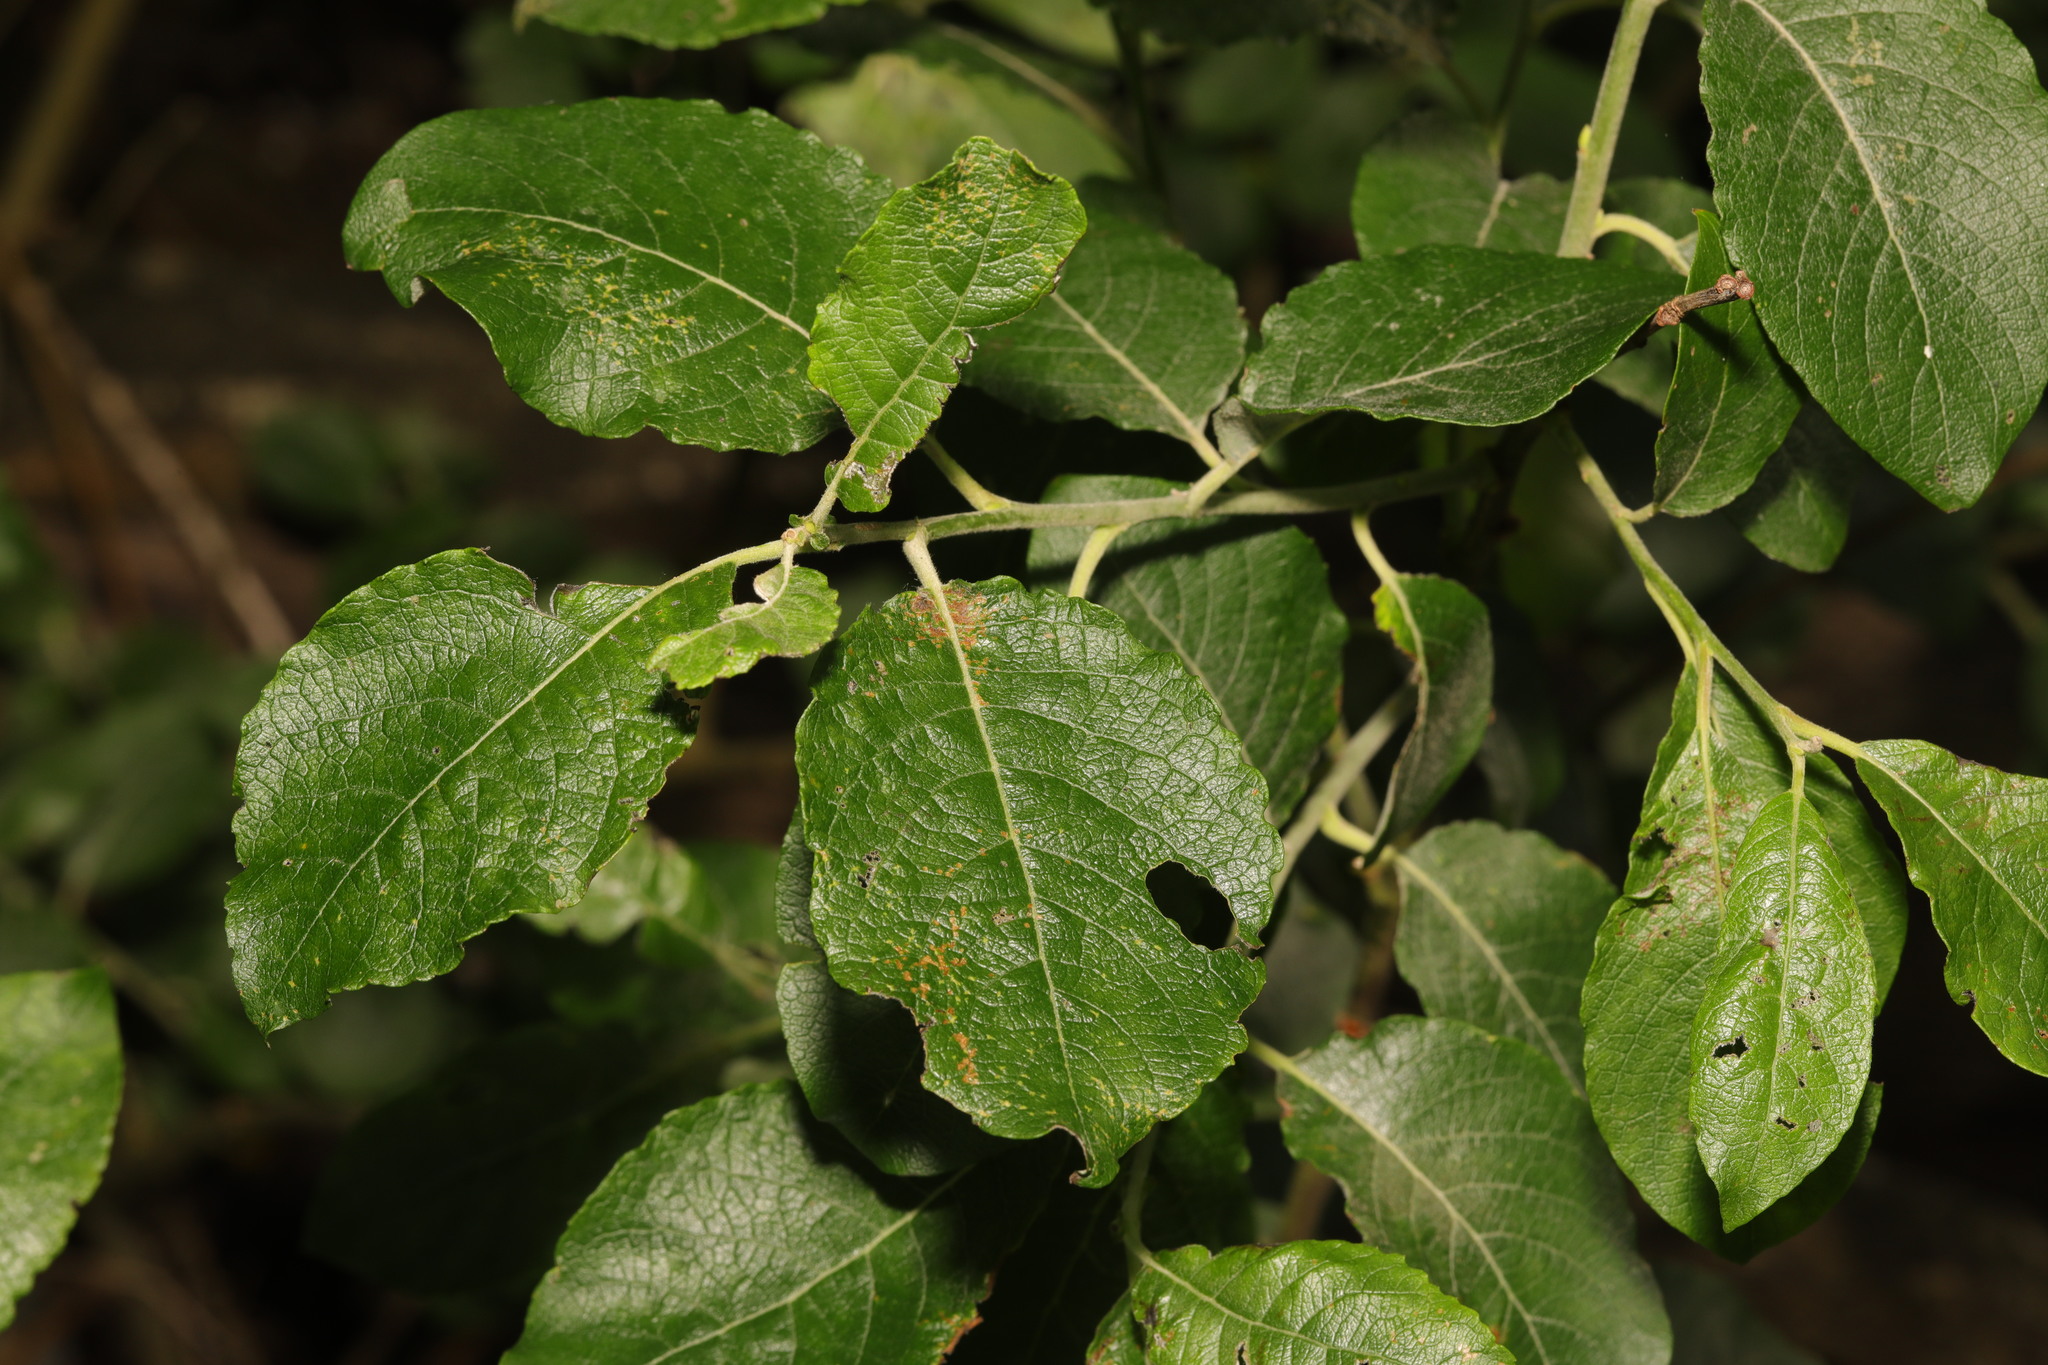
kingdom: Plantae
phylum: Tracheophyta
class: Magnoliopsida
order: Malpighiales
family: Salicaceae
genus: Salix
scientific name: Salix caprea
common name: Goat willow
